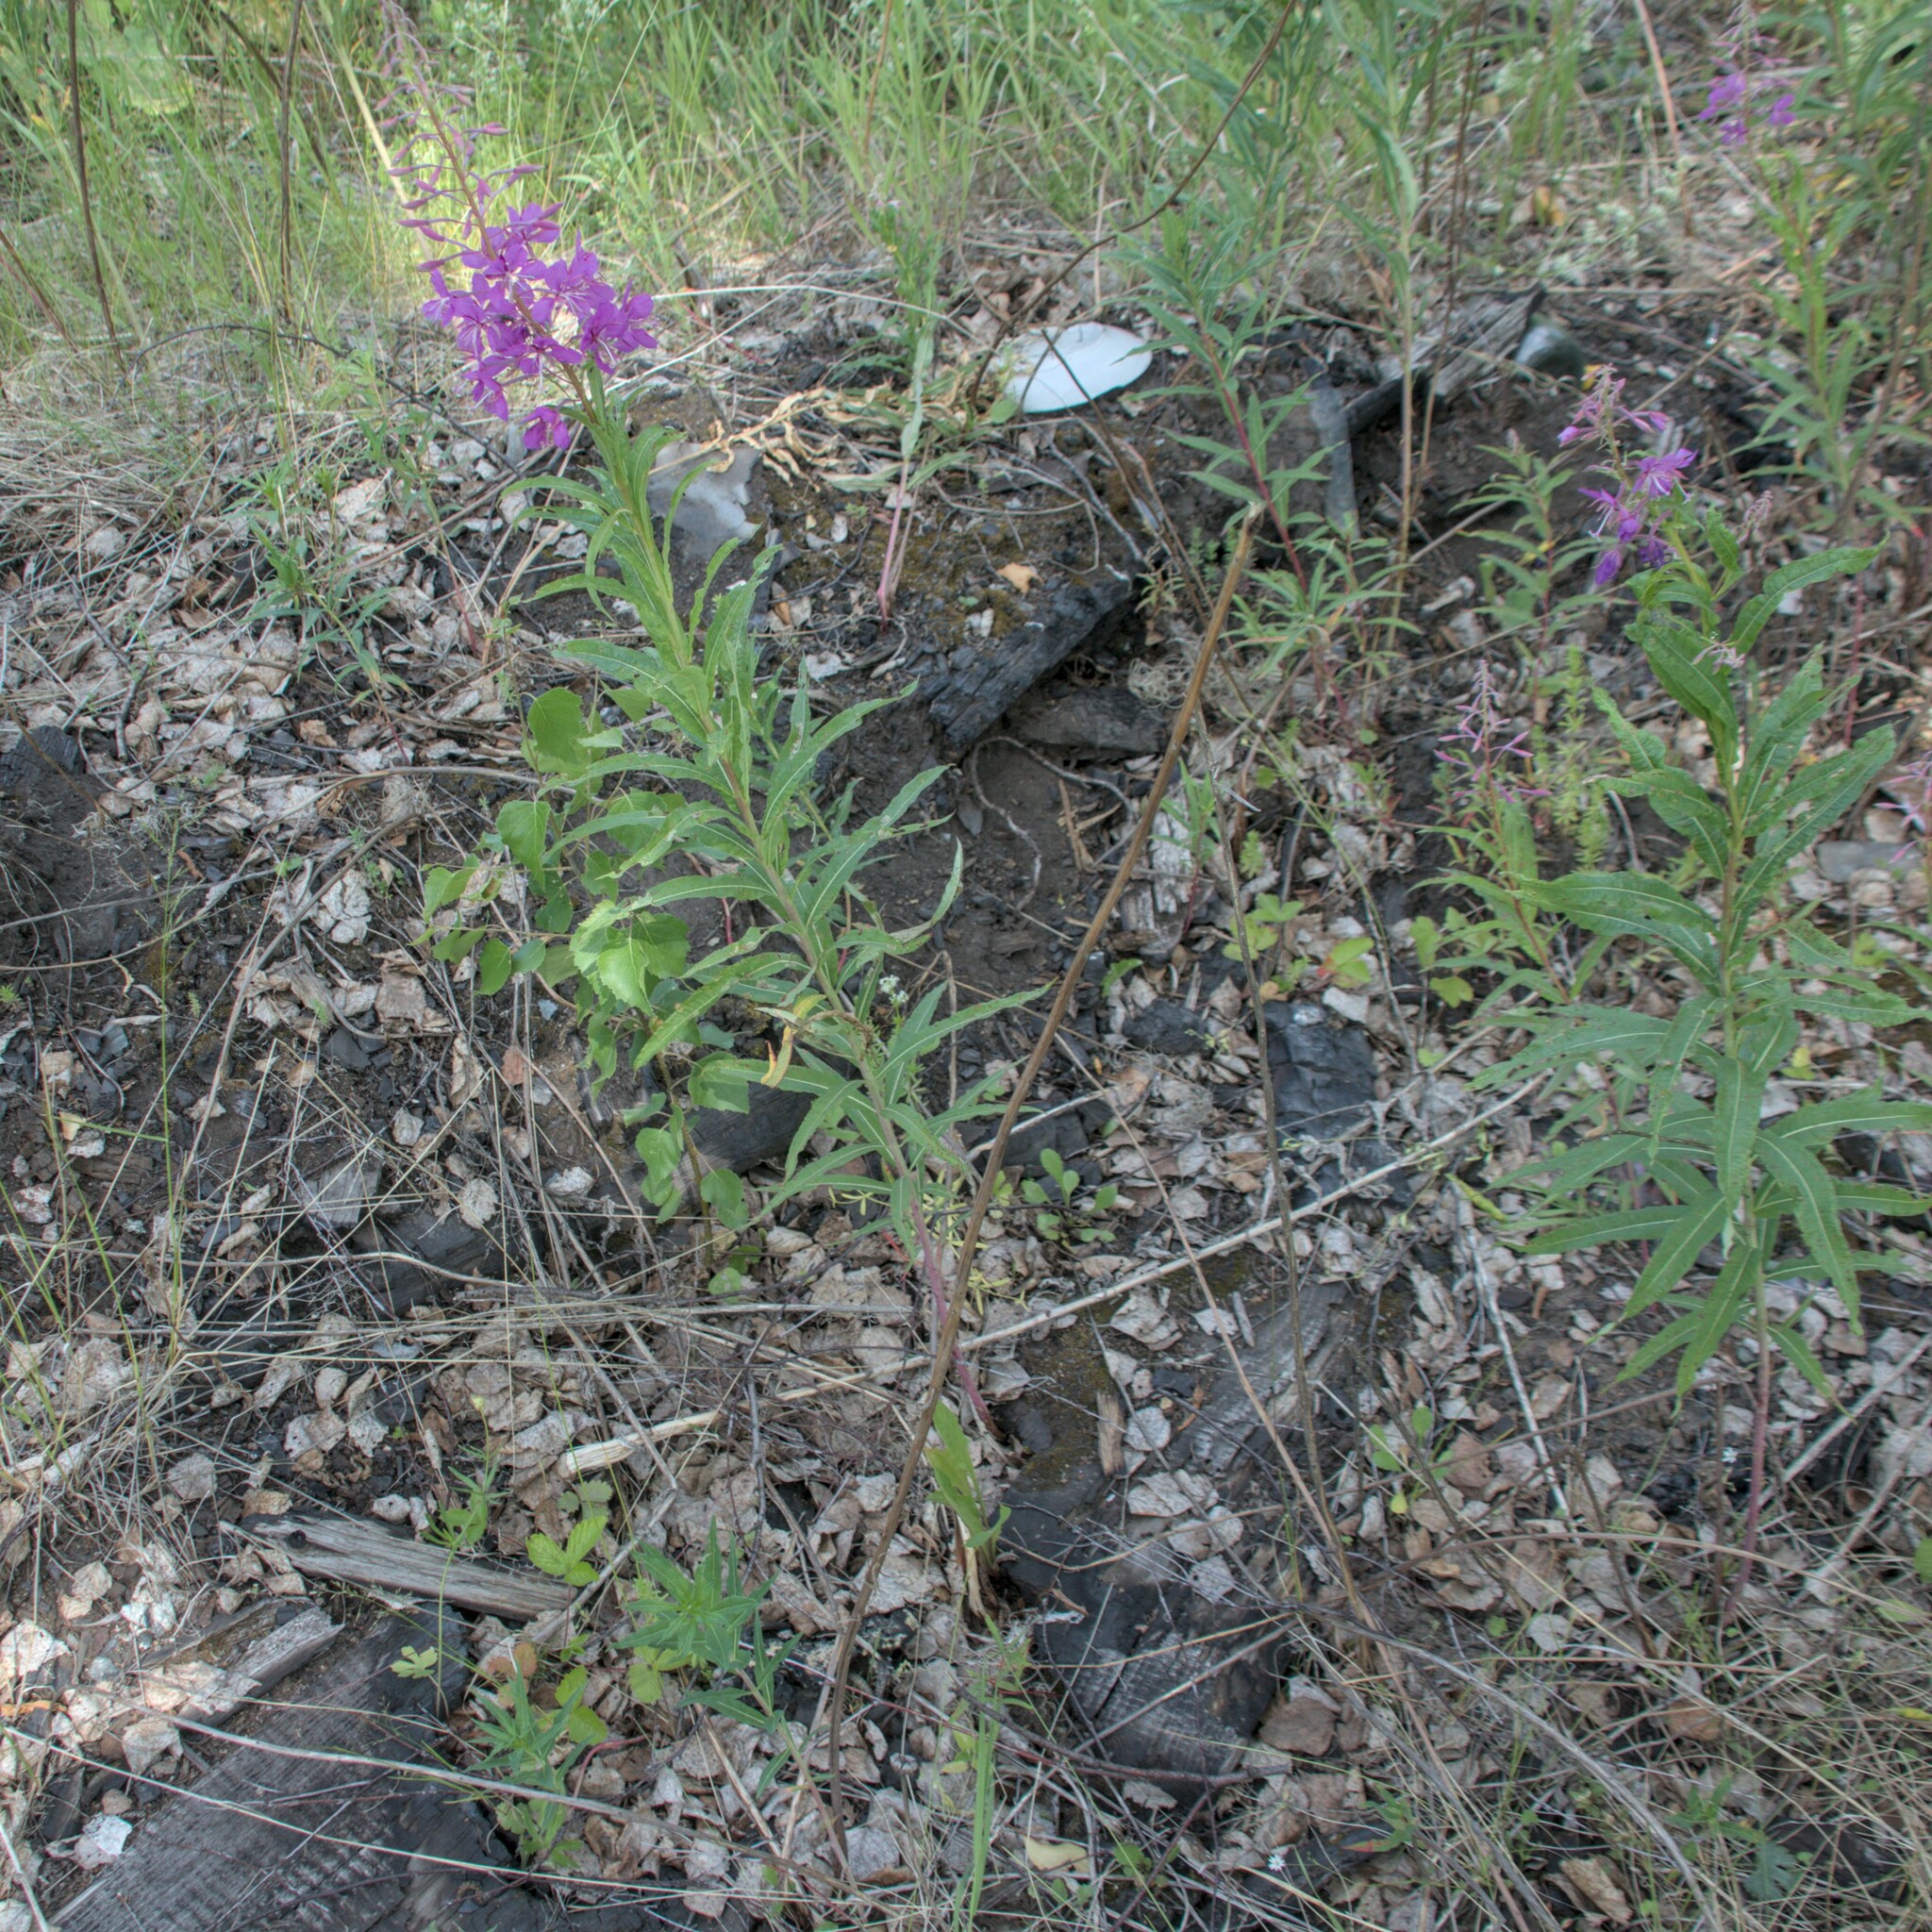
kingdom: Plantae
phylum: Tracheophyta
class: Magnoliopsida
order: Myrtales
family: Onagraceae
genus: Chamaenerion
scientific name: Chamaenerion angustifolium
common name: Fireweed
